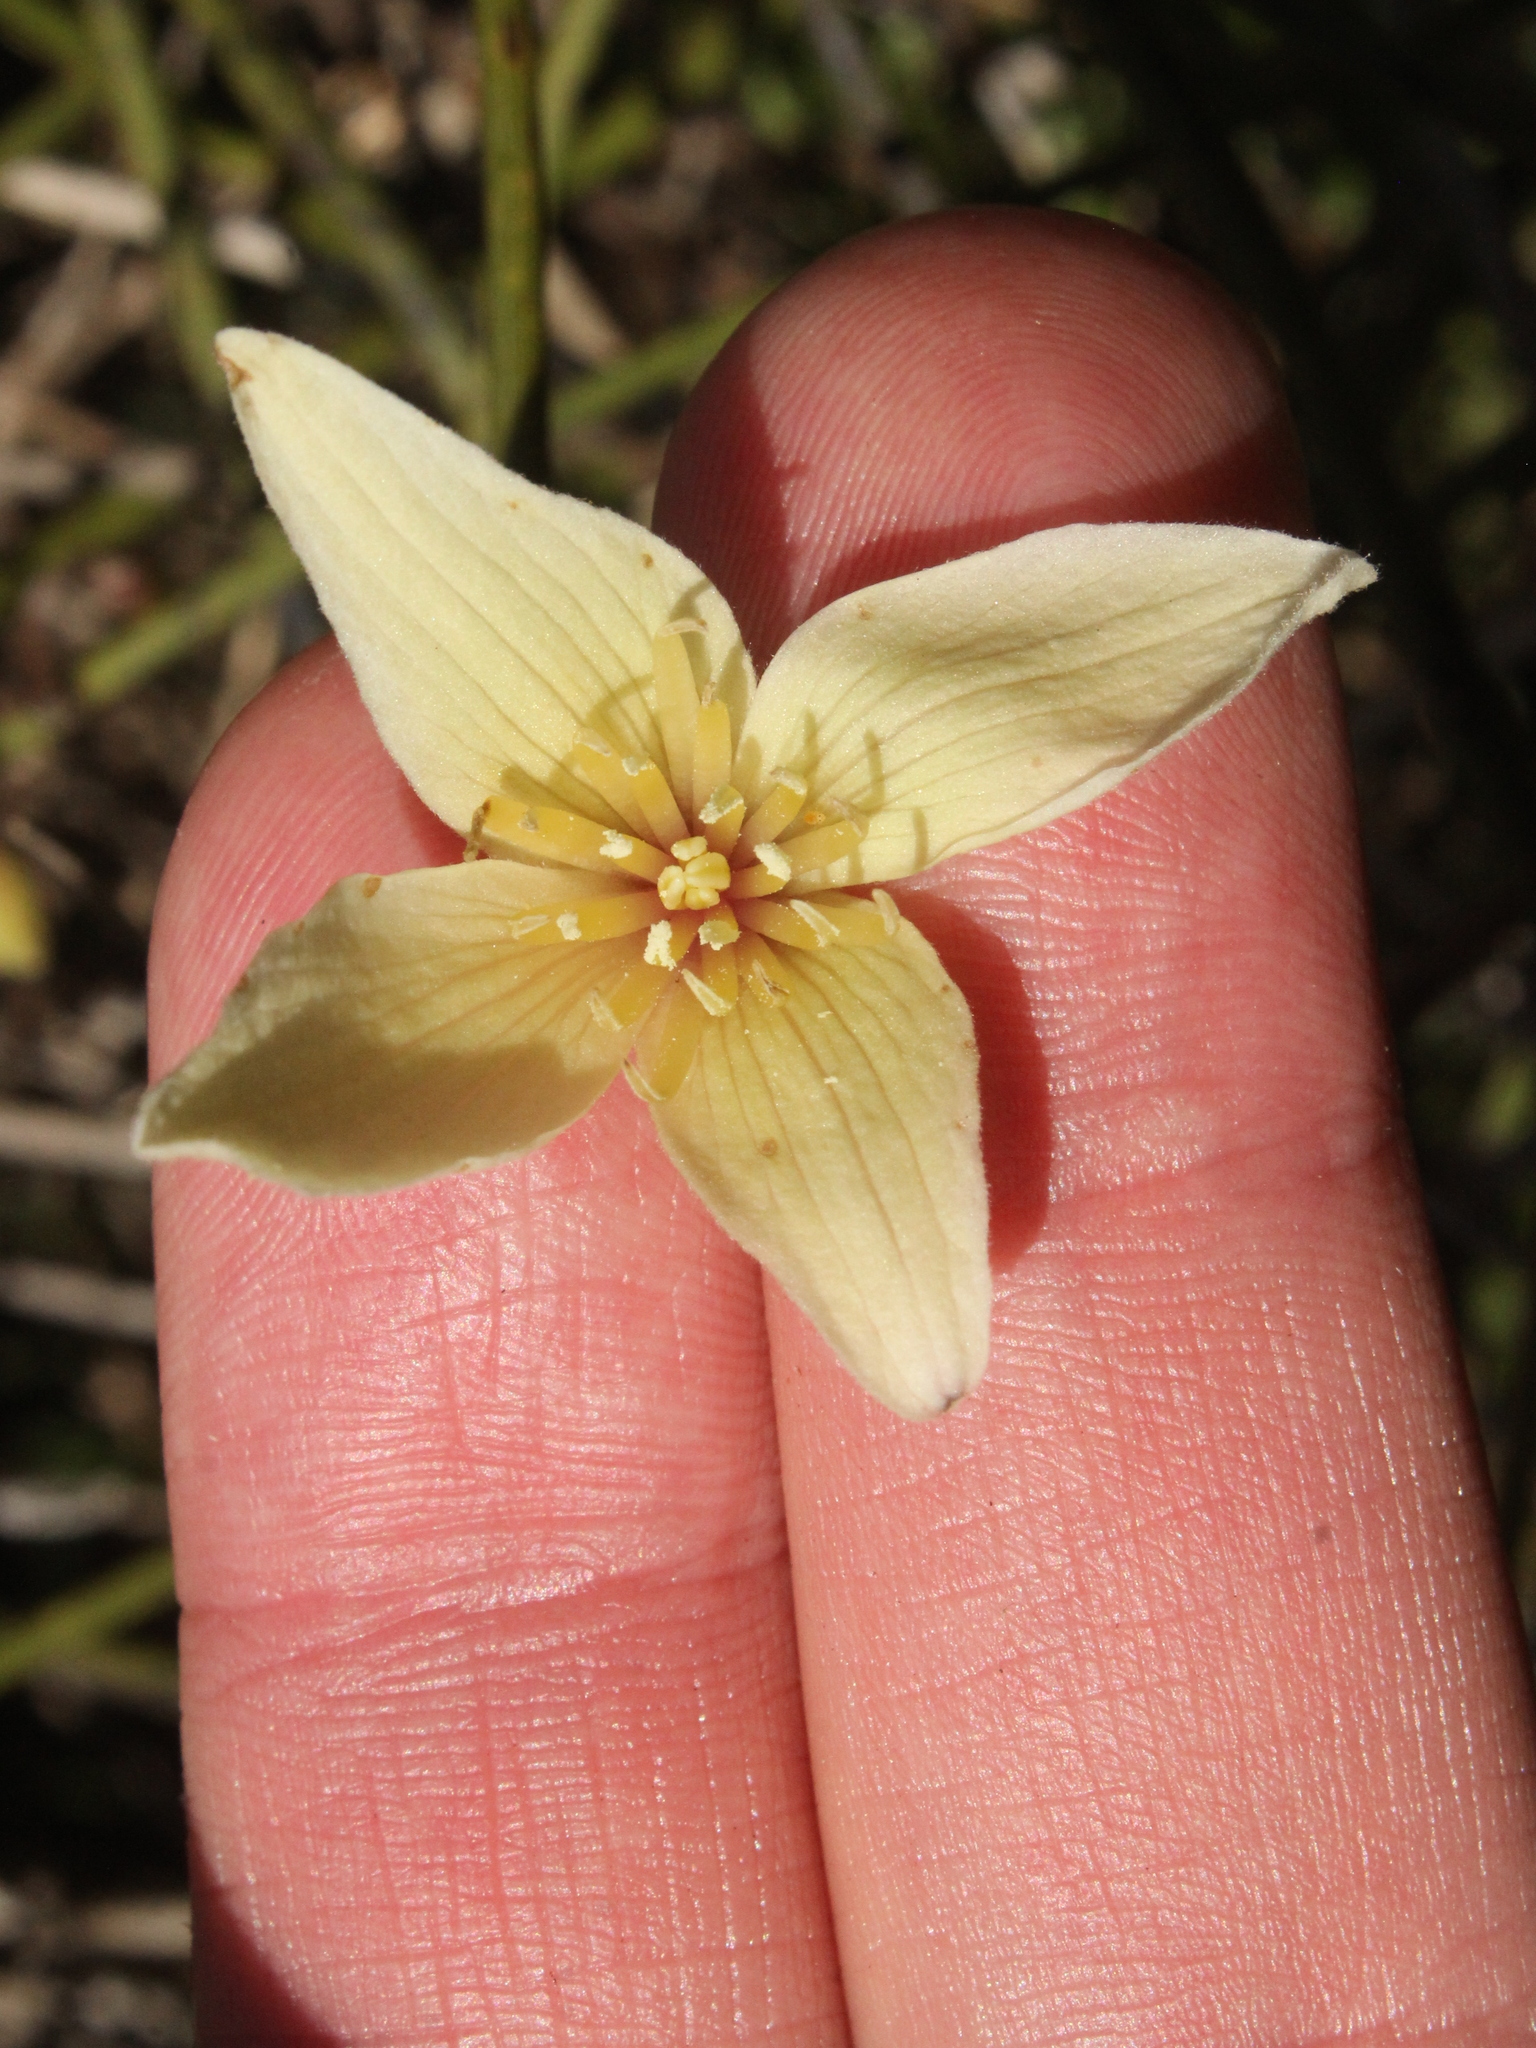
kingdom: Plantae
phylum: Tracheophyta
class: Magnoliopsida
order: Ranunculales
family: Ranunculaceae
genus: Clematis
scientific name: Clematis afoliata
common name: Rush-stem clematis
